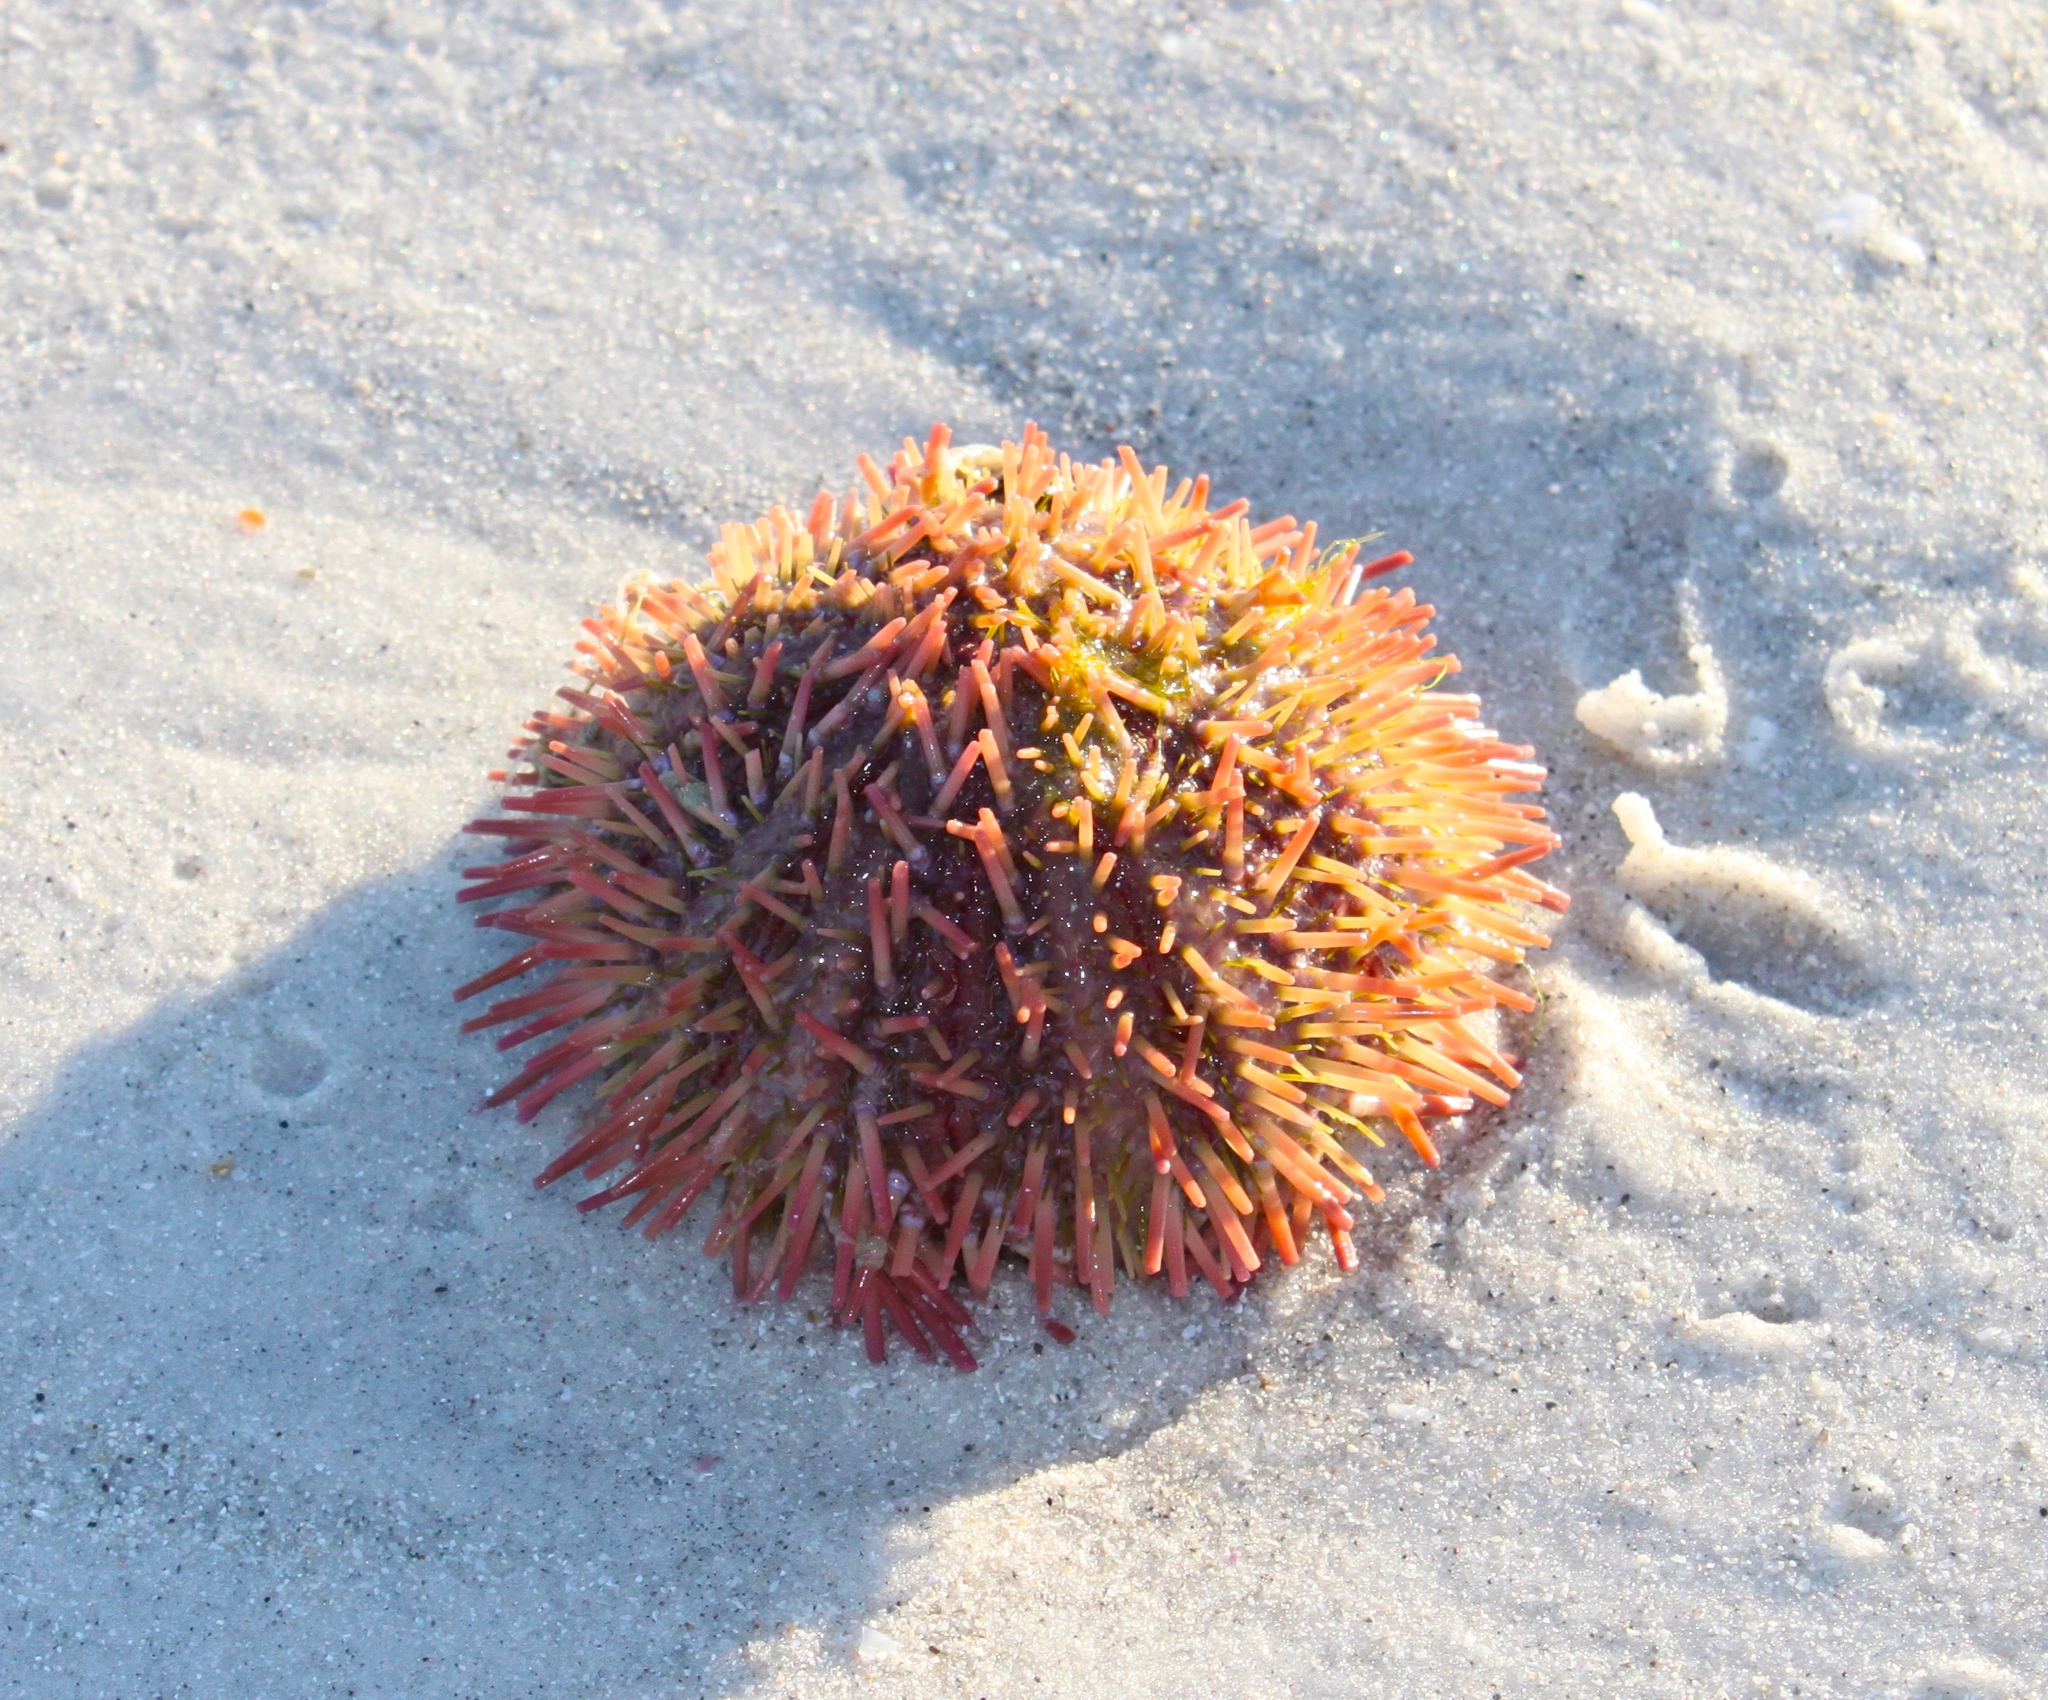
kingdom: Animalia
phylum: Echinodermata
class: Echinoidea
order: Camarodonta
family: Toxopneustidae
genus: Lytechinus
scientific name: Lytechinus variegatus
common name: Variegated urchin
